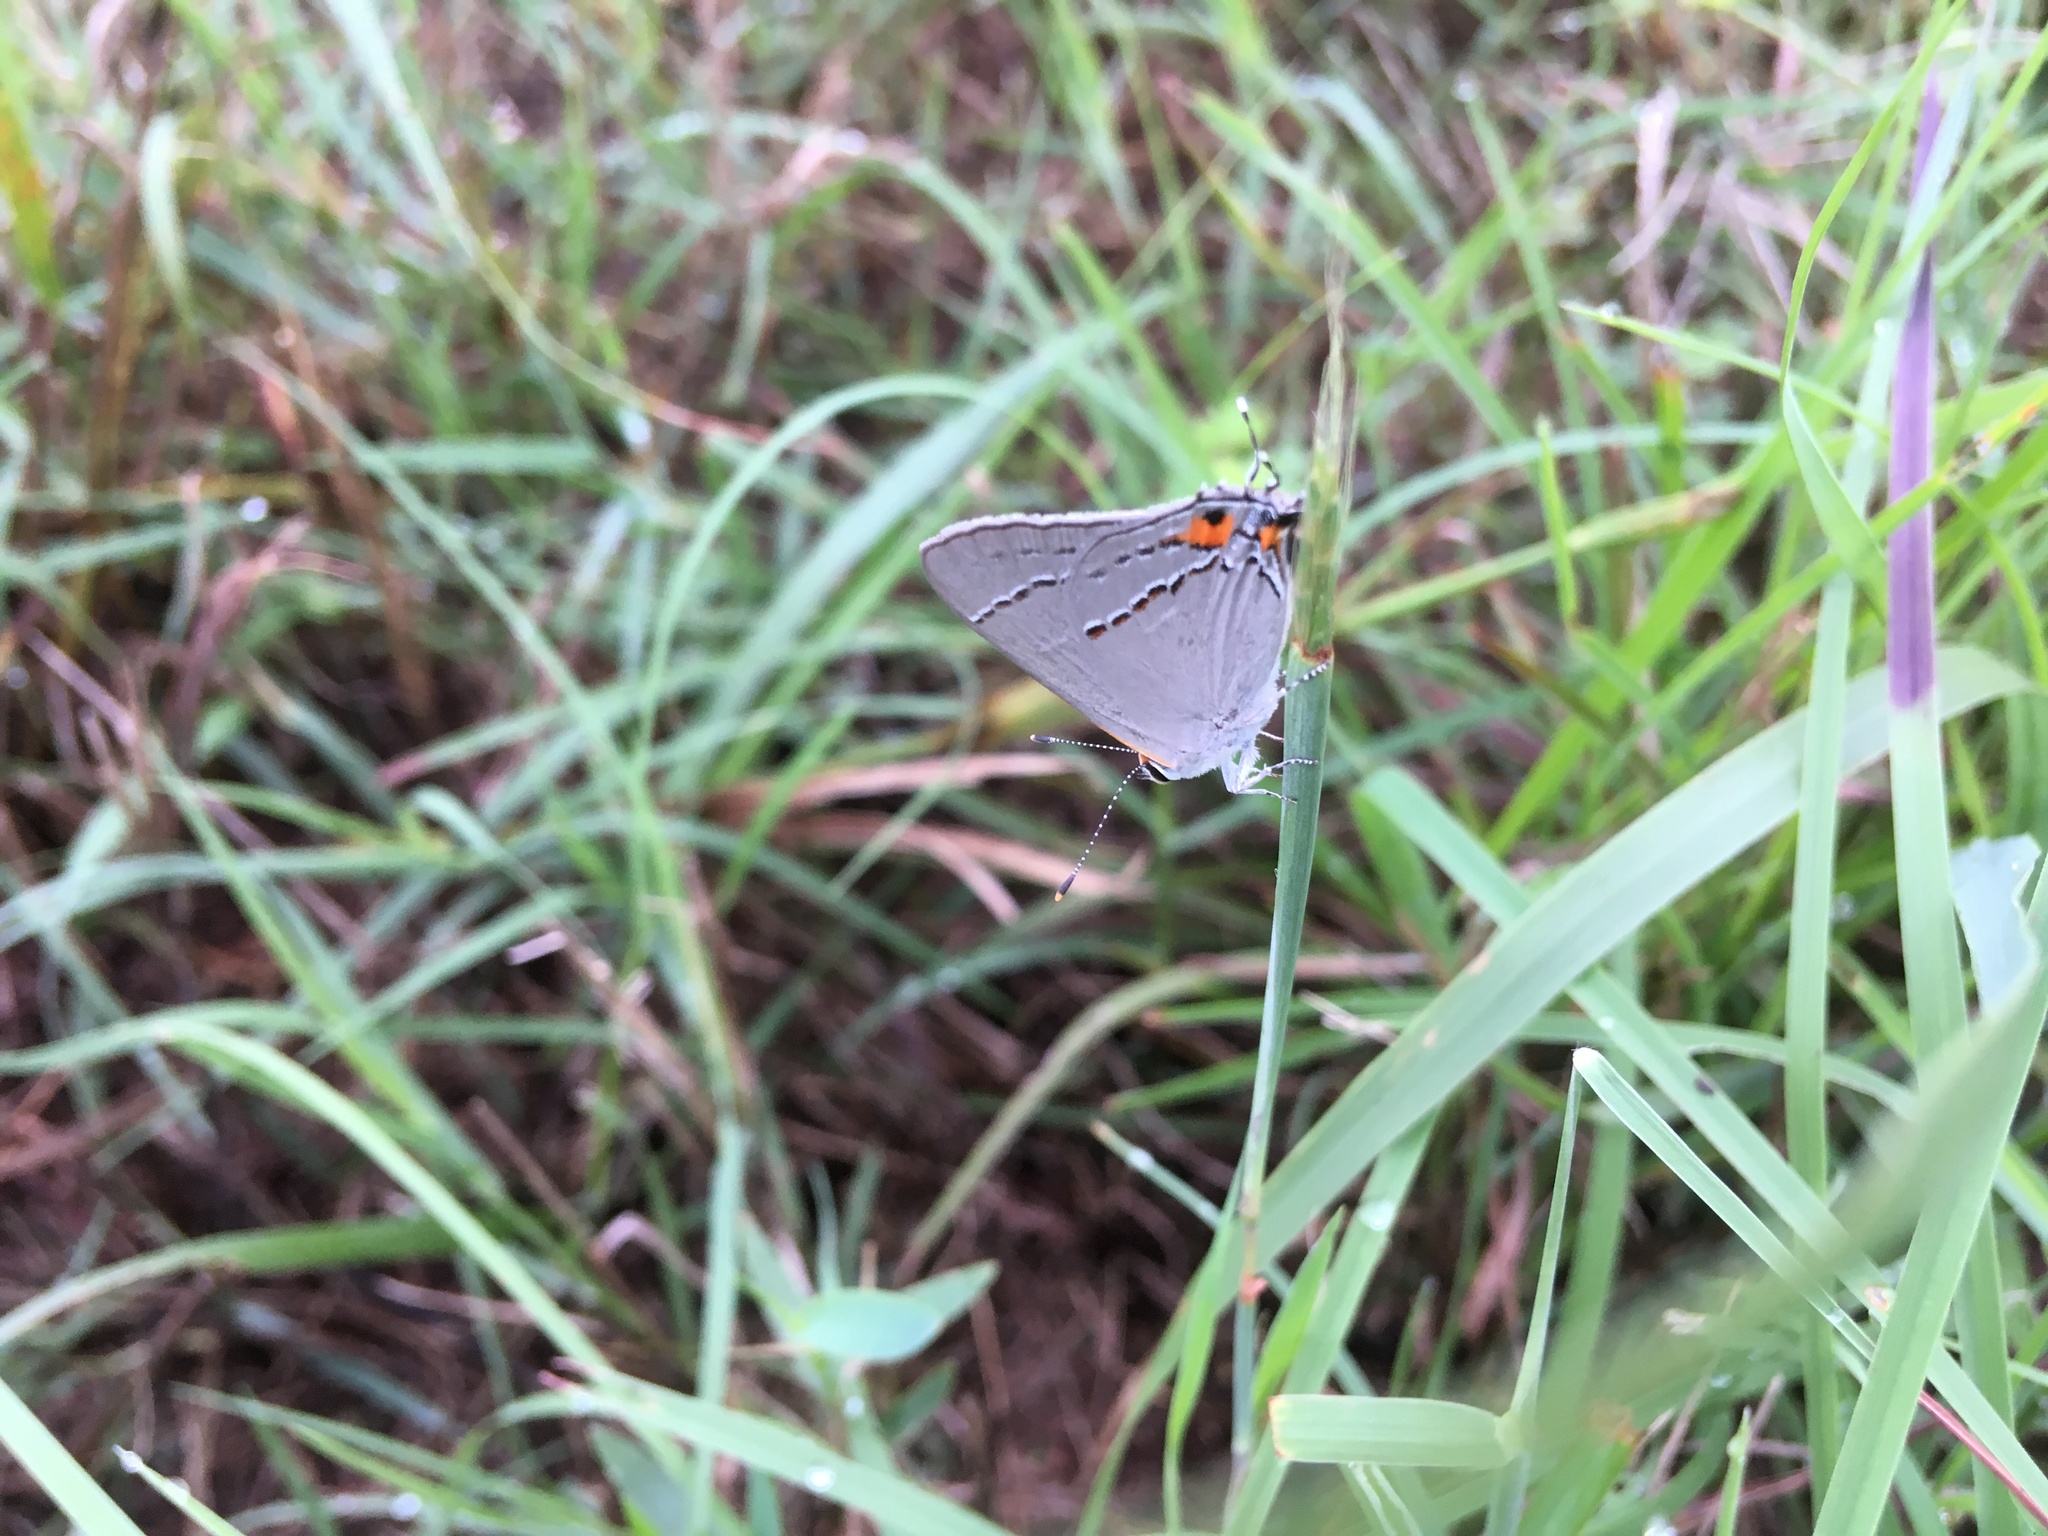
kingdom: Animalia
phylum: Arthropoda
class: Insecta
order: Lepidoptera
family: Lycaenidae
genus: Strymon
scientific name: Strymon melinus
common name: Gray hairstreak
